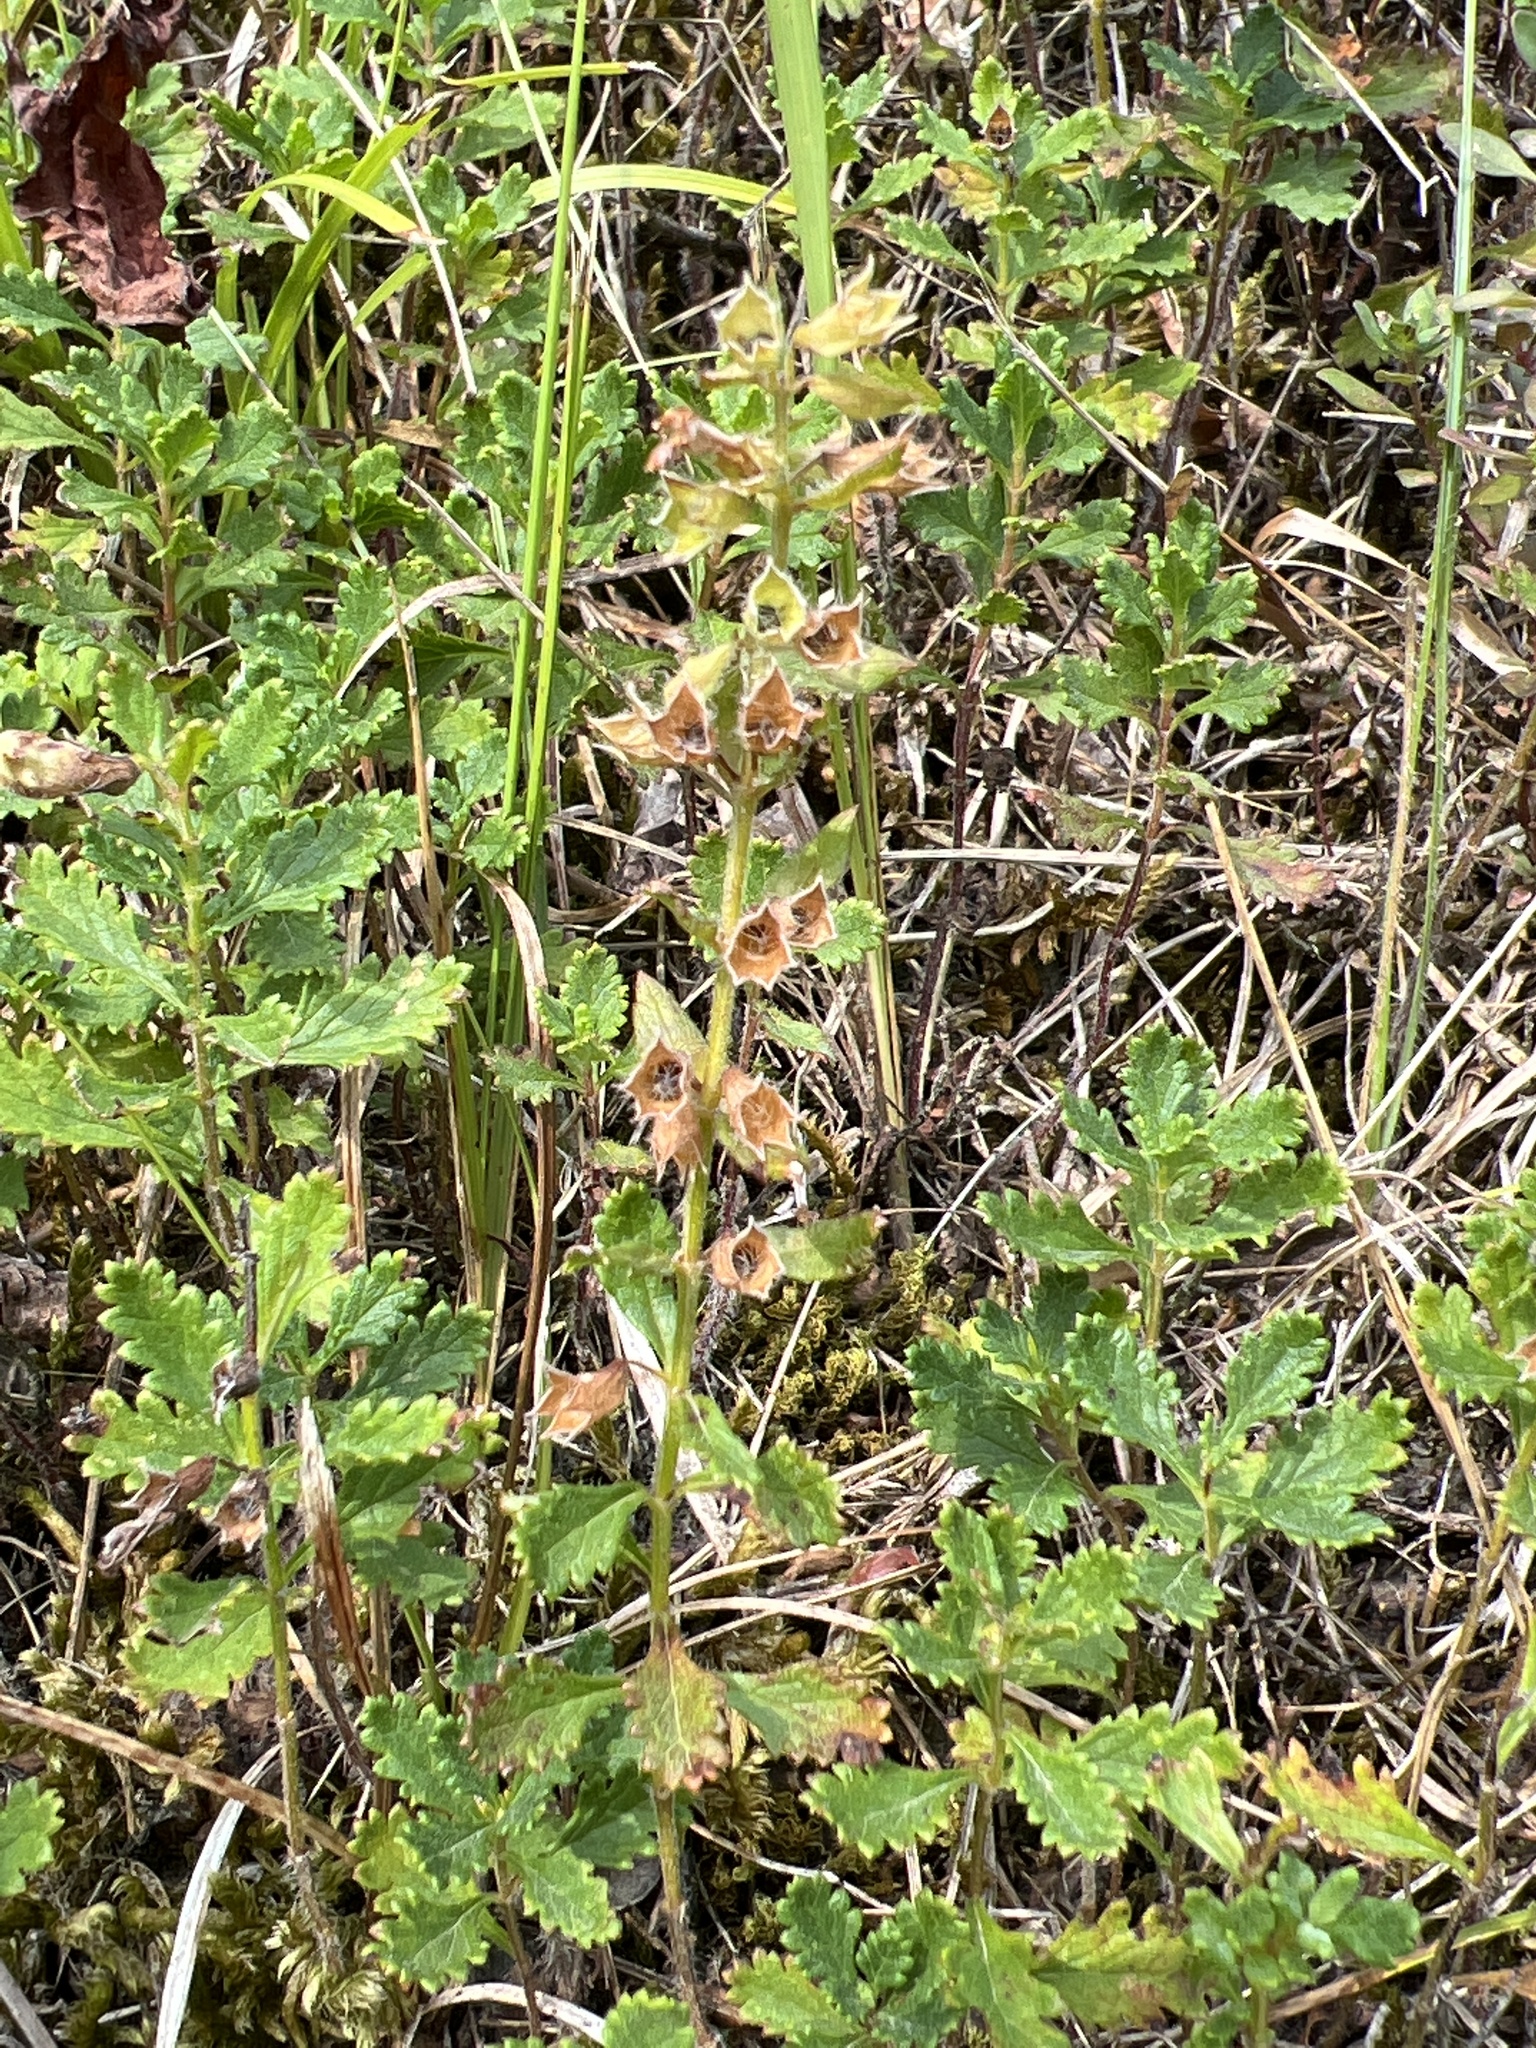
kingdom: Plantae
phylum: Tracheophyta
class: Magnoliopsida
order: Lamiales
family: Lamiaceae
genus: Teucrium
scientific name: Teucrium chamaedrys
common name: Wall germander
